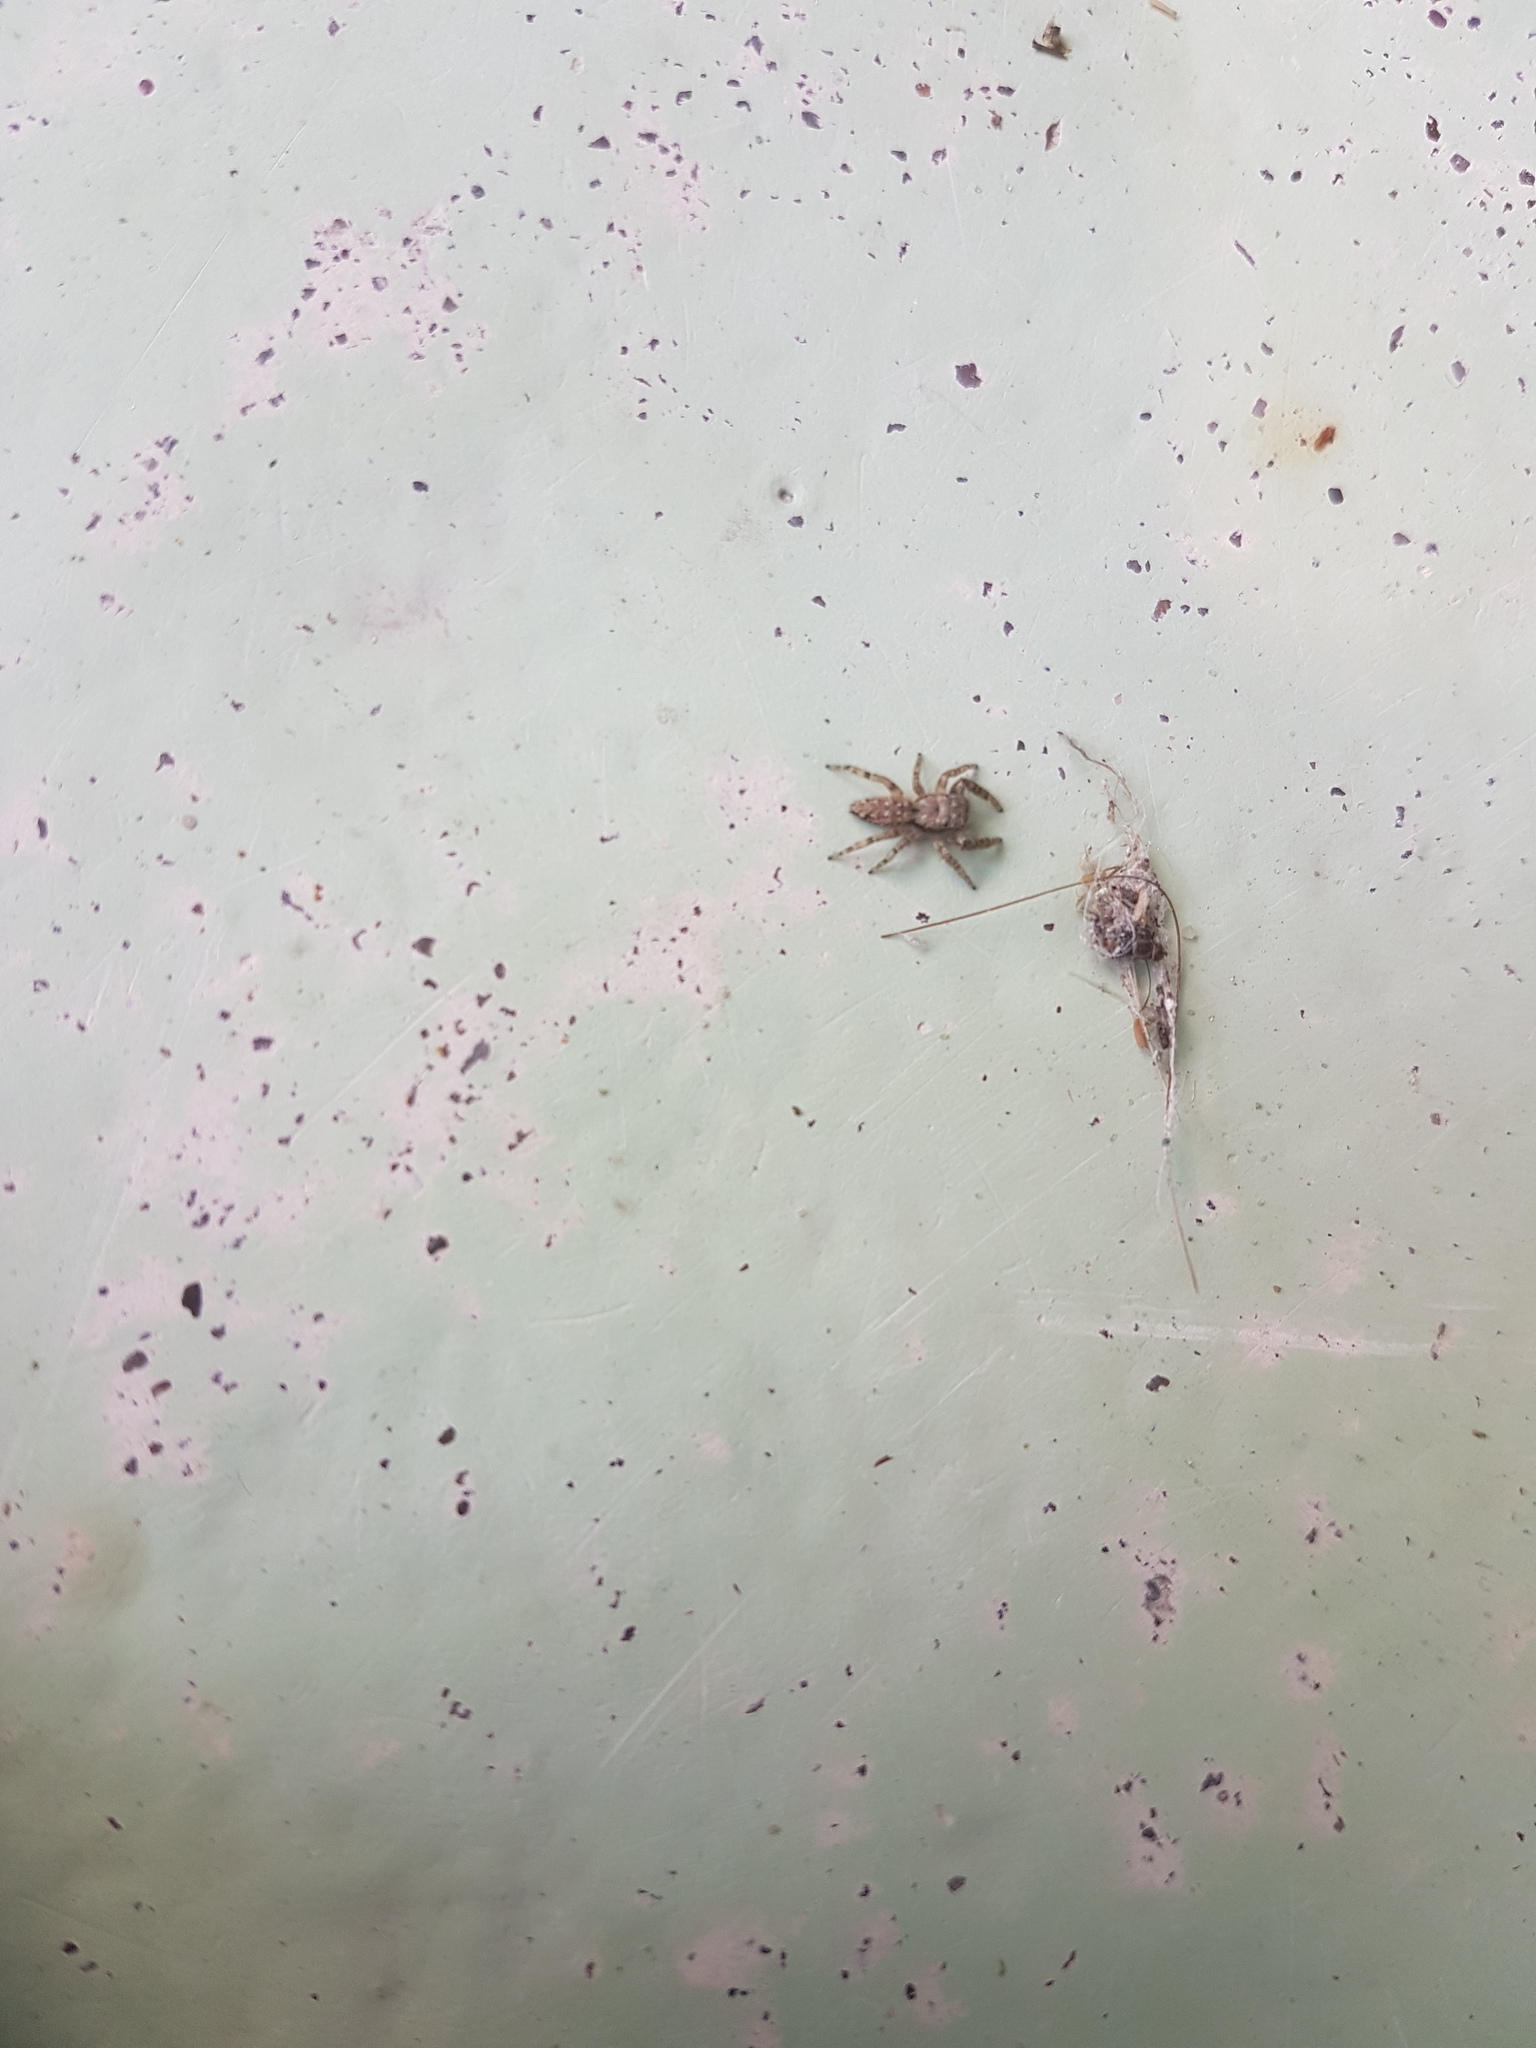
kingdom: Animalia
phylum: Arthropoda
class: Arachnida
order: Araneae
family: Salticidae
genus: Marpissa
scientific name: Marpissa muscosa
